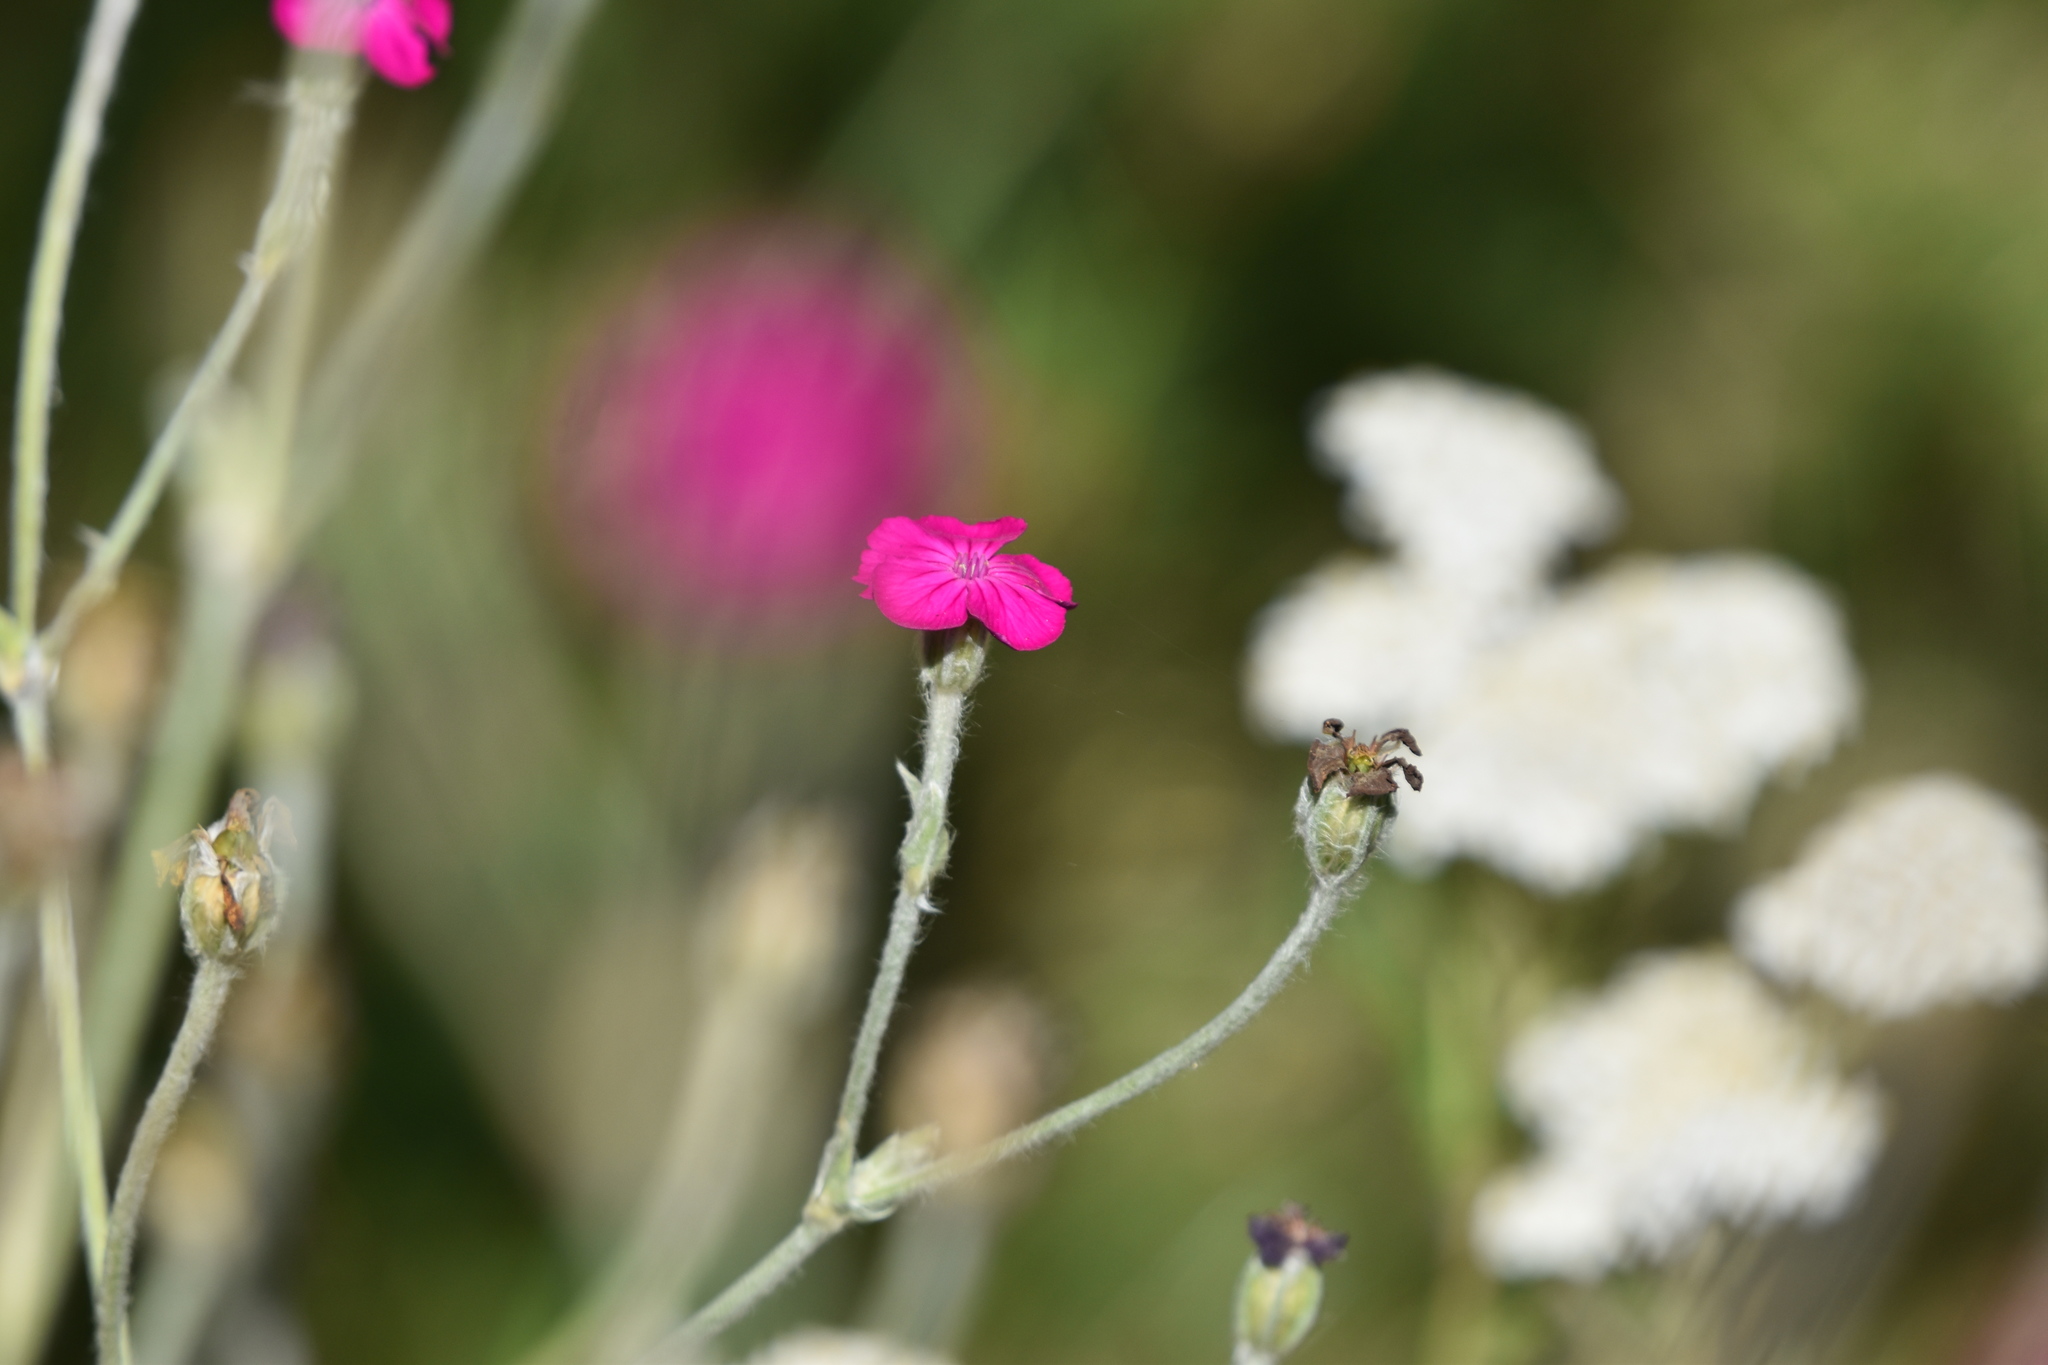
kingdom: Plantae
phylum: Tracheophyta
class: Magnoliopsida
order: Caryophyllales
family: Caryophyllaceae
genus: Silene
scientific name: Silene coronaria
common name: Rose campion
